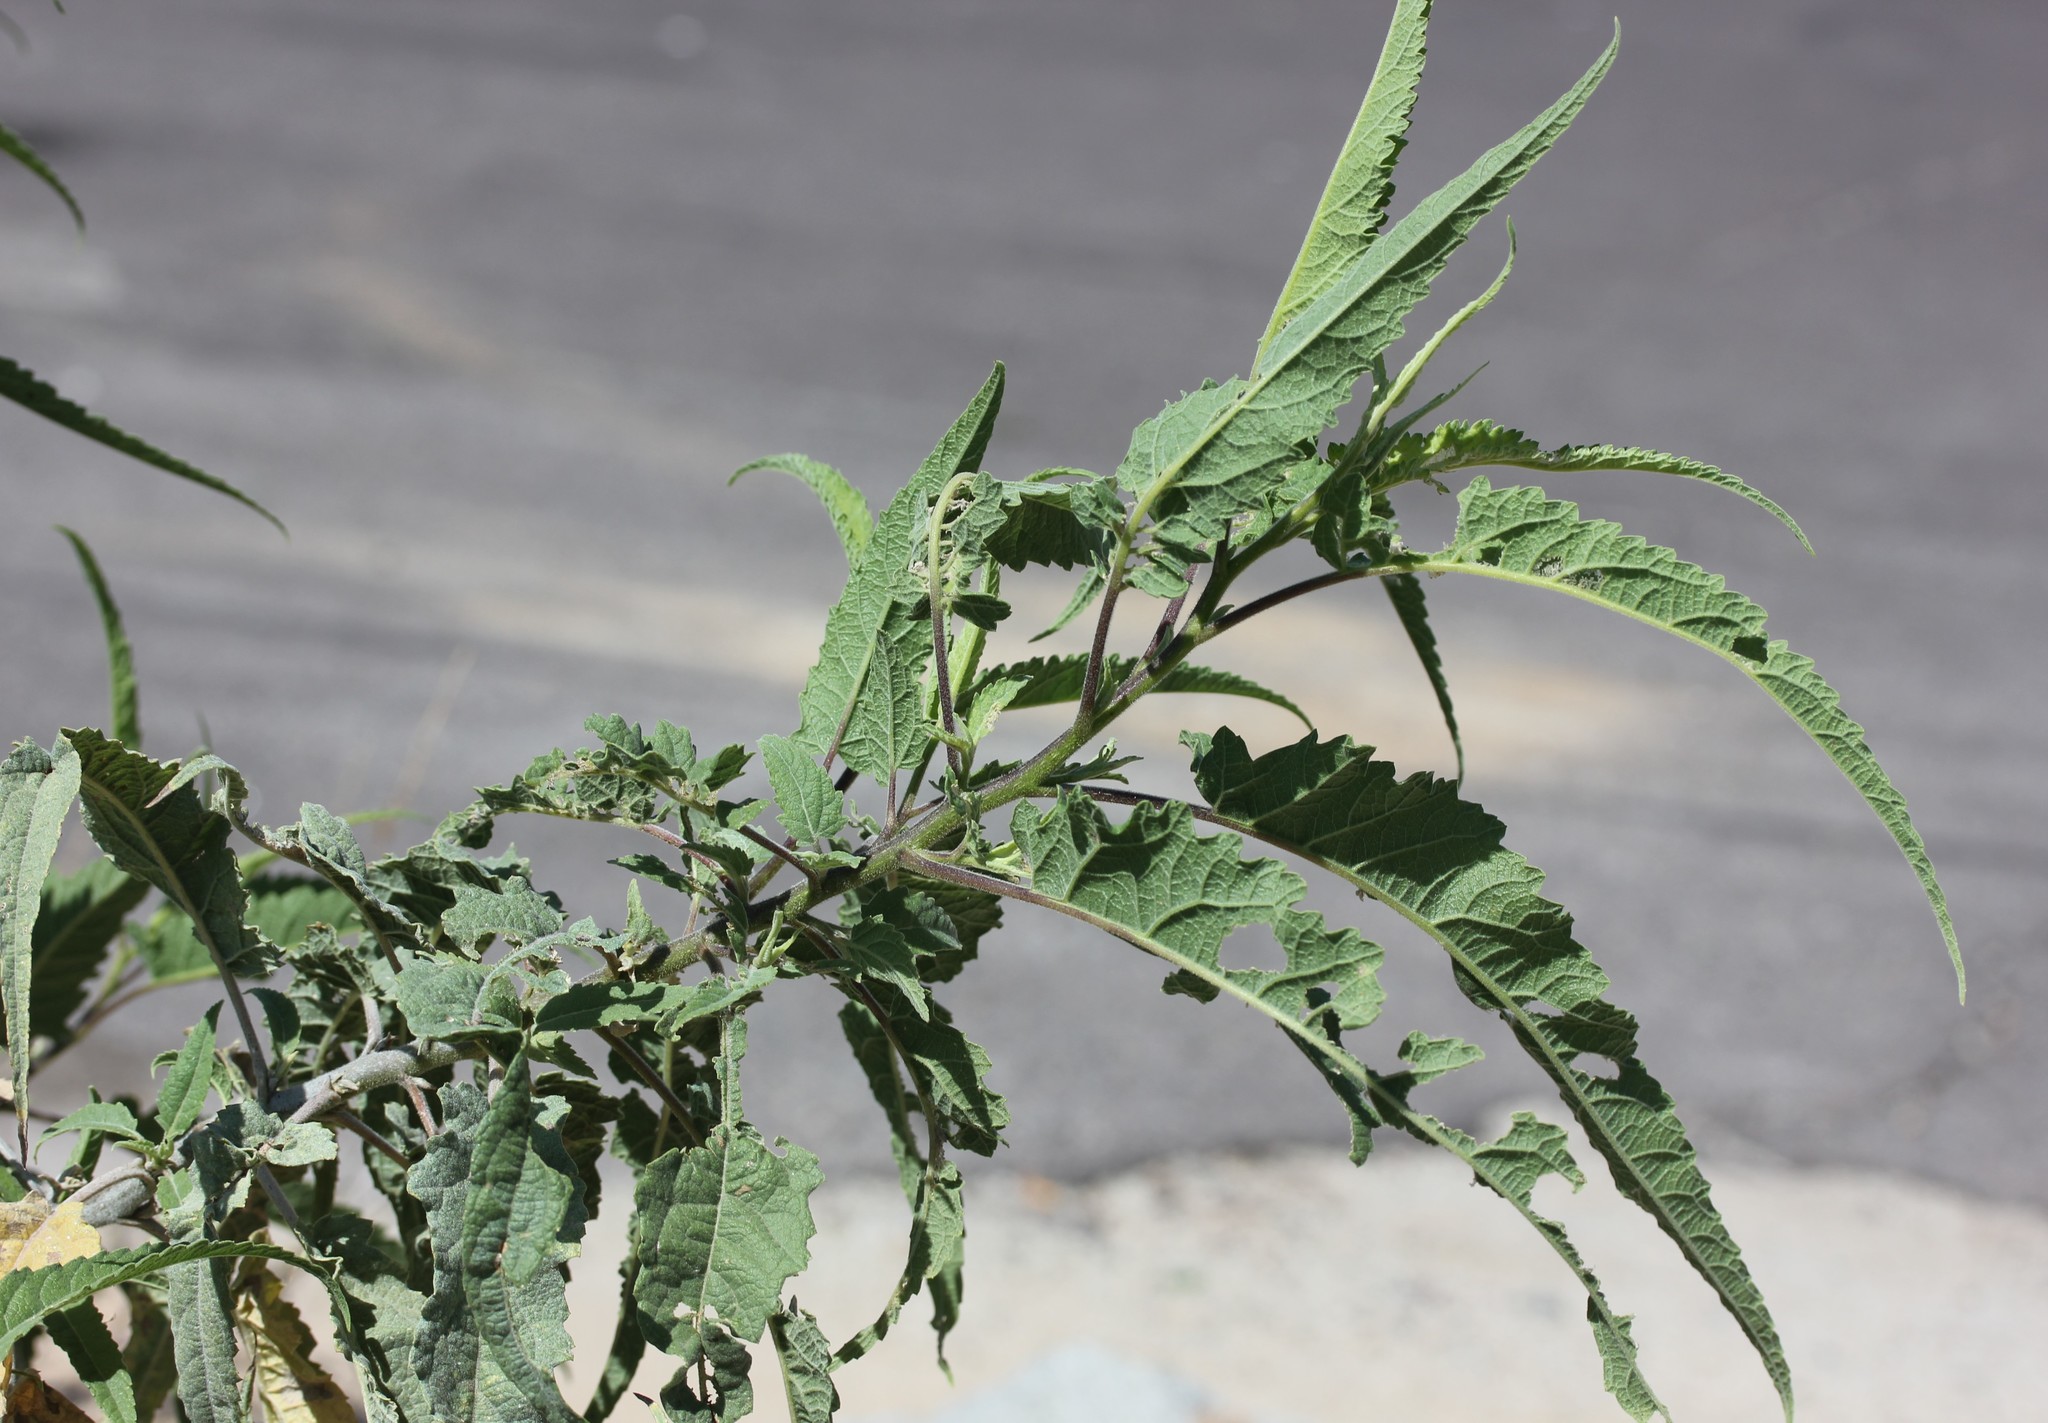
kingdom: Plantae
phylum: Tracheophyta
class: Magnoliopsida
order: Asterales
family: Asteraceae
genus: Ambrosia
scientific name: Ambrosia ambrosioides
